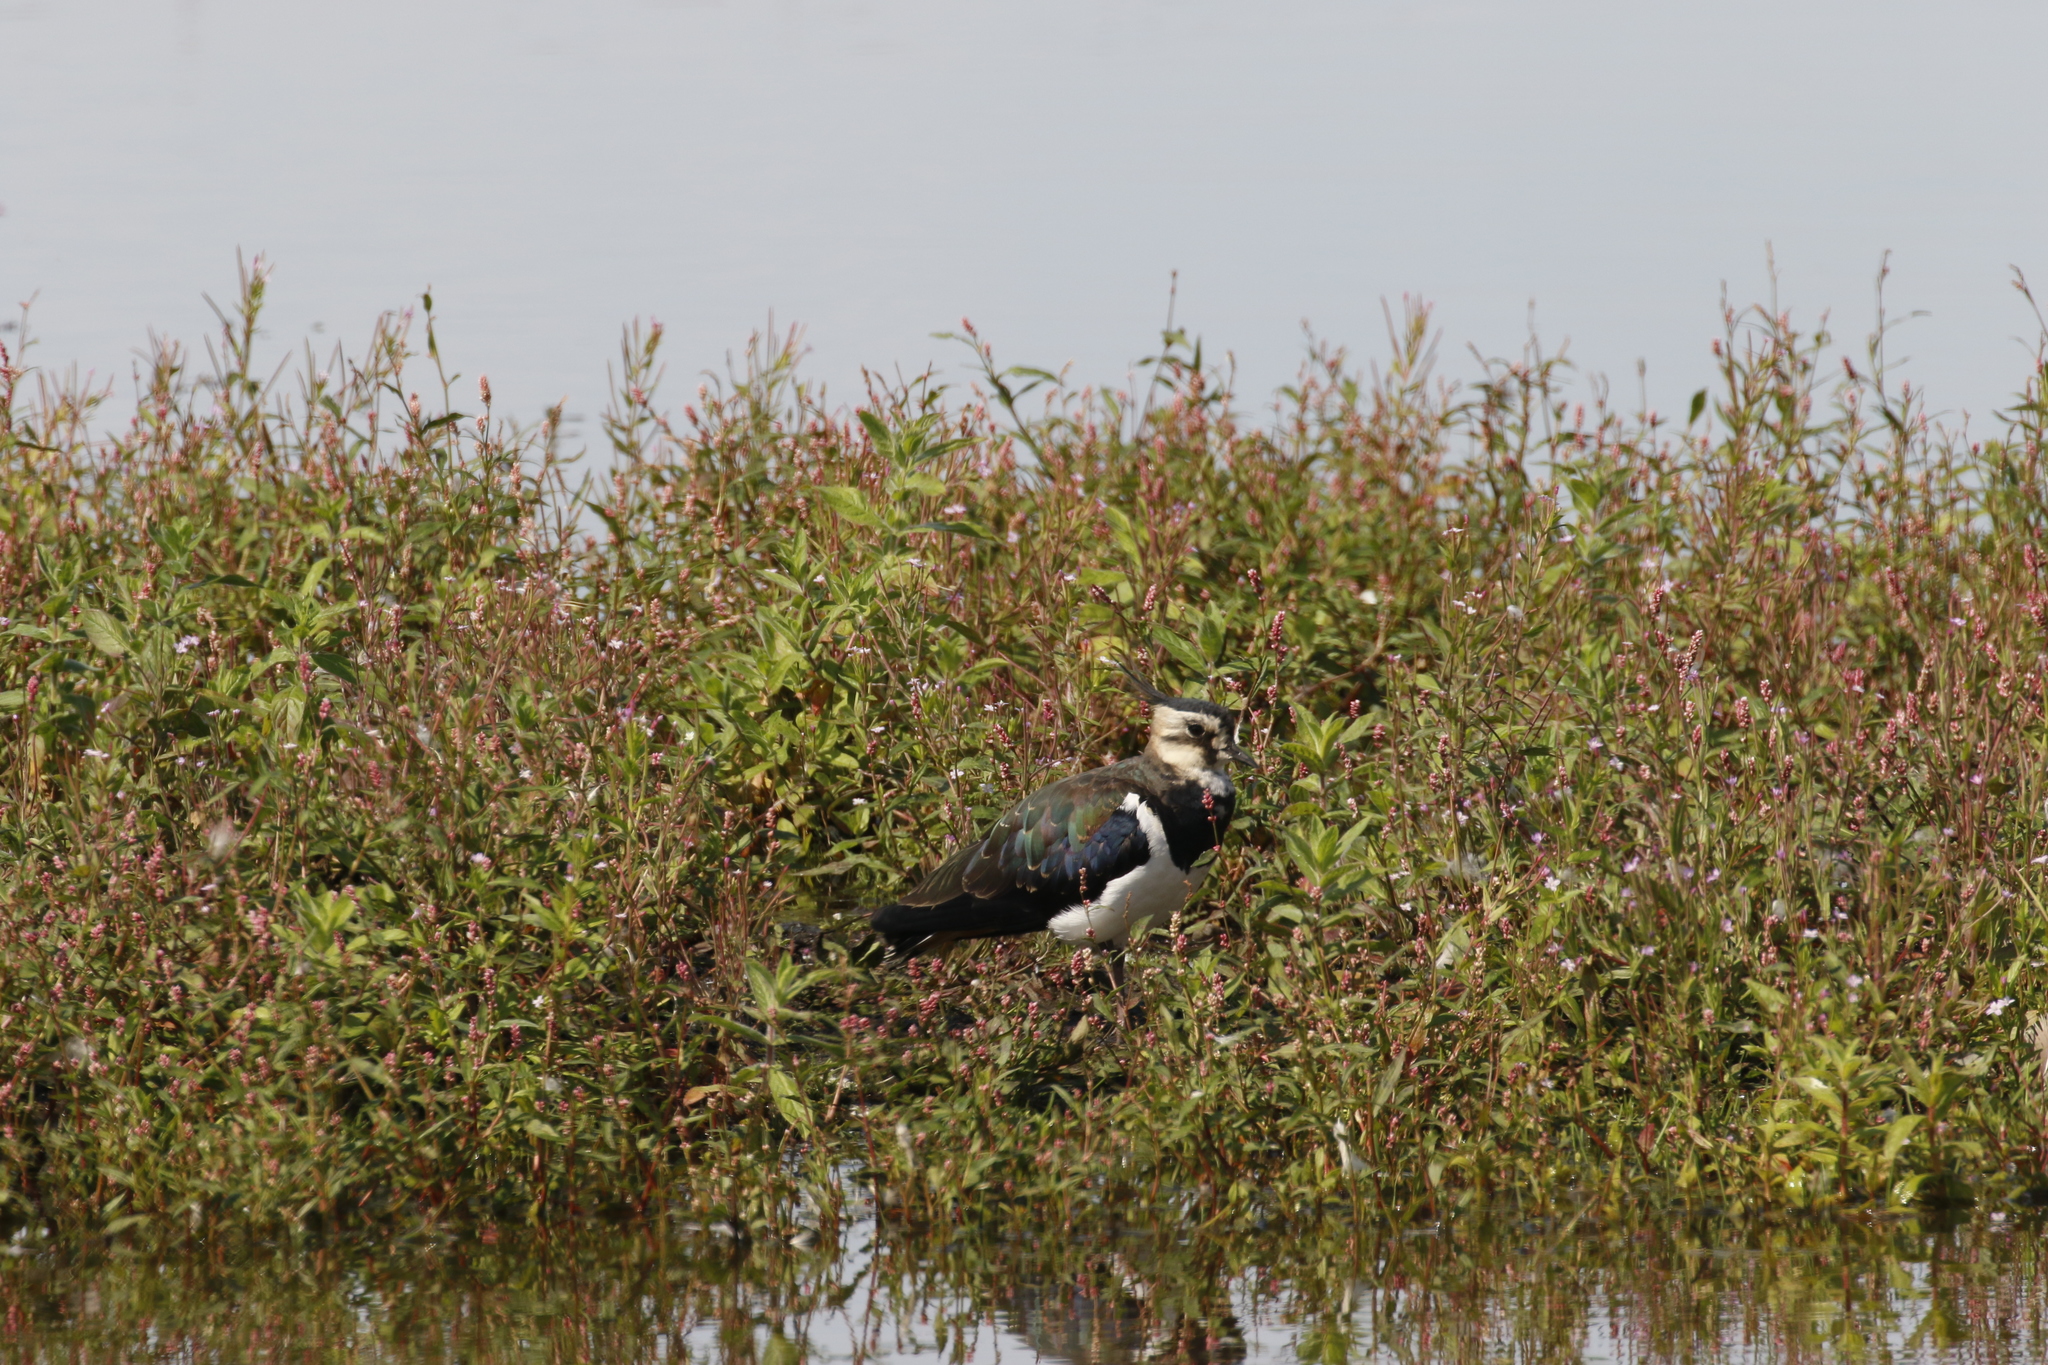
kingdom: Animalia
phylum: Chordata
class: Aves
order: Charadriiformes
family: Charadriidae
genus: Vanellus
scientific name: Vanellus vanellus
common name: Northern lapwing
